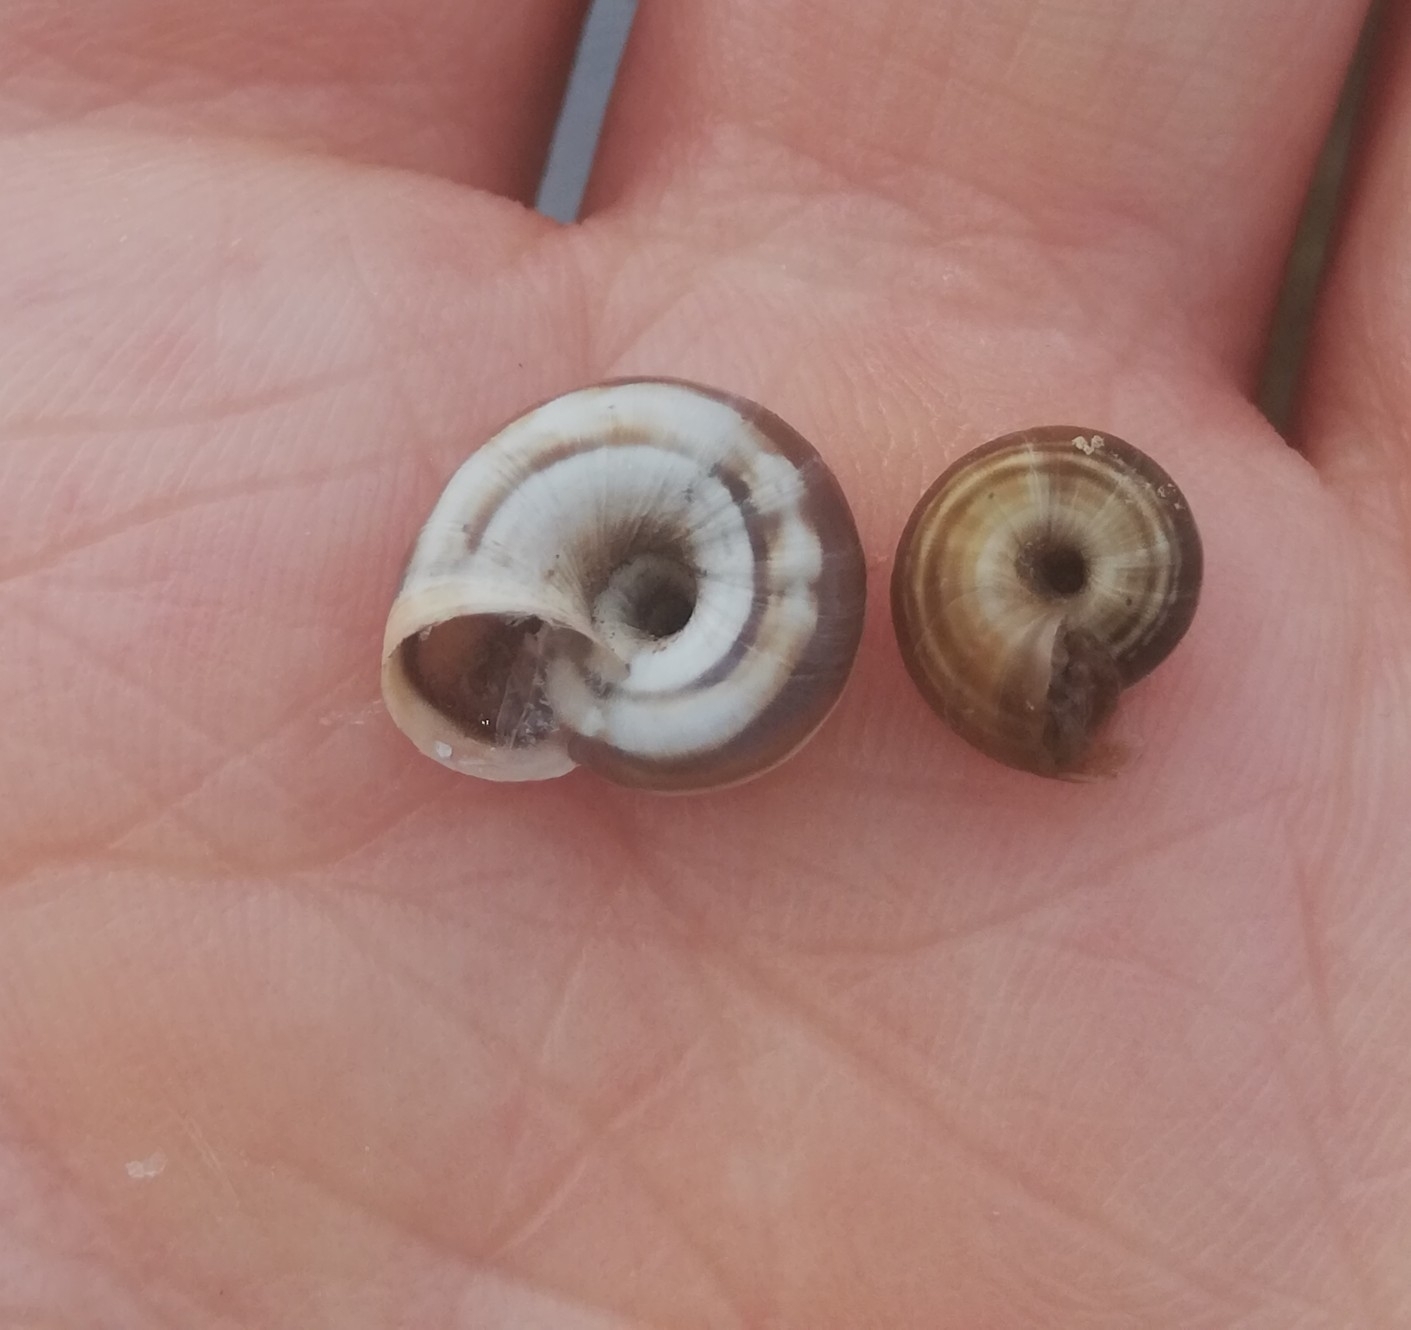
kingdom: Animalia
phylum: Mollusca
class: Gastropoda
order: Stylommatophora
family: Geomitridae
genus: Cernuella
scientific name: Cernuella neglecta
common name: Neglected dune snail
